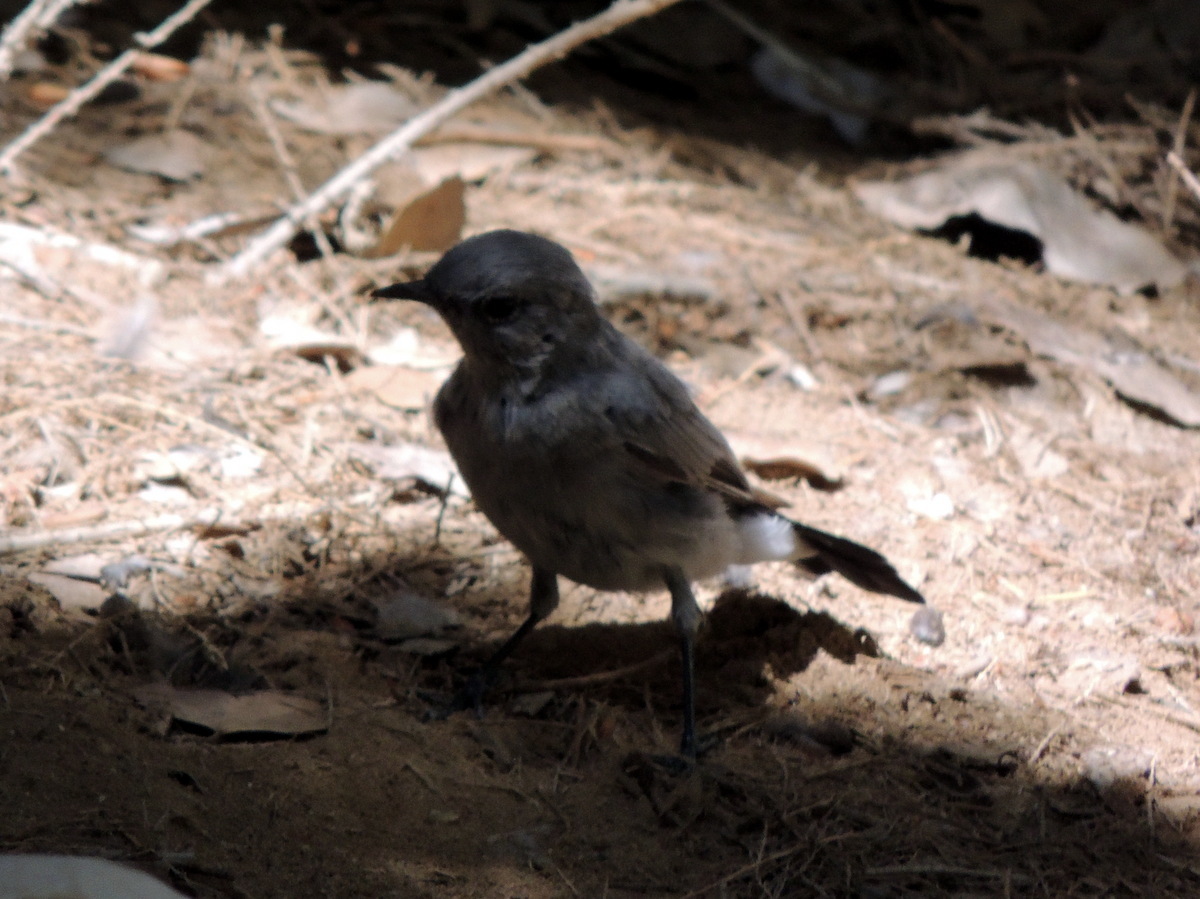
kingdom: Animalia
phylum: Chordata
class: Aves
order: Passeriformes
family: Muscicapidae
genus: Oenanthe
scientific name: Oenanthe melanura
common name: Blackstart
